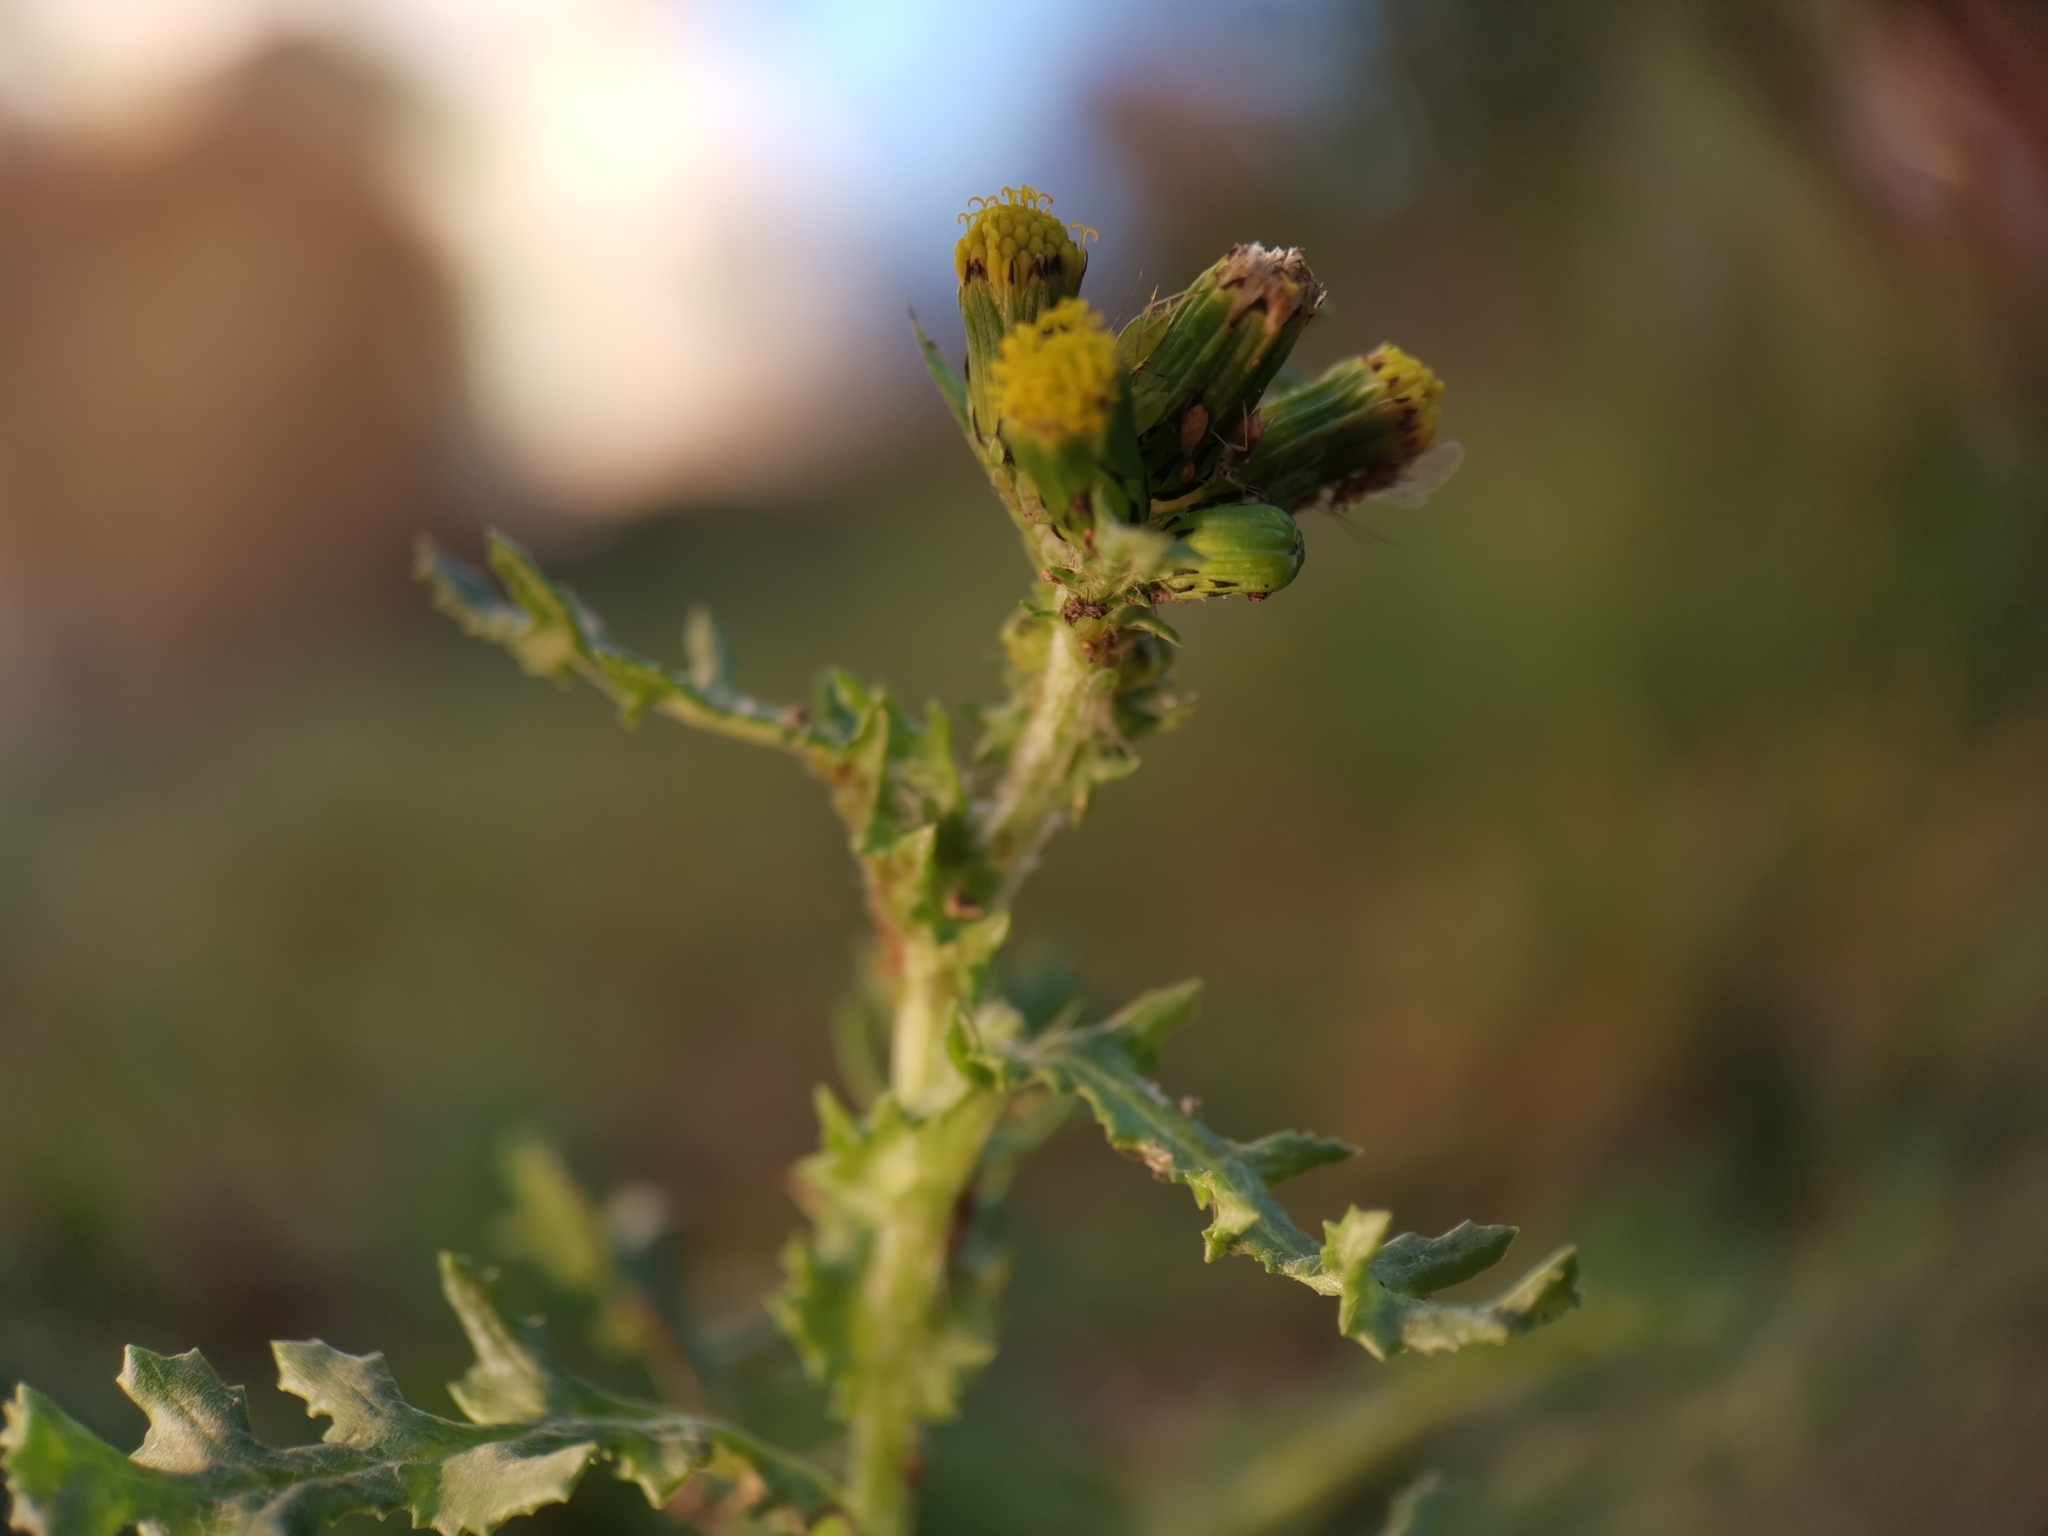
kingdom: Plantae
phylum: Tracheophyta
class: Magnoliopsida
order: Asterales
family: Asteraceae
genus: Senecio
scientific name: Senecio vulgaris
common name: Old-man-in-the-spring
